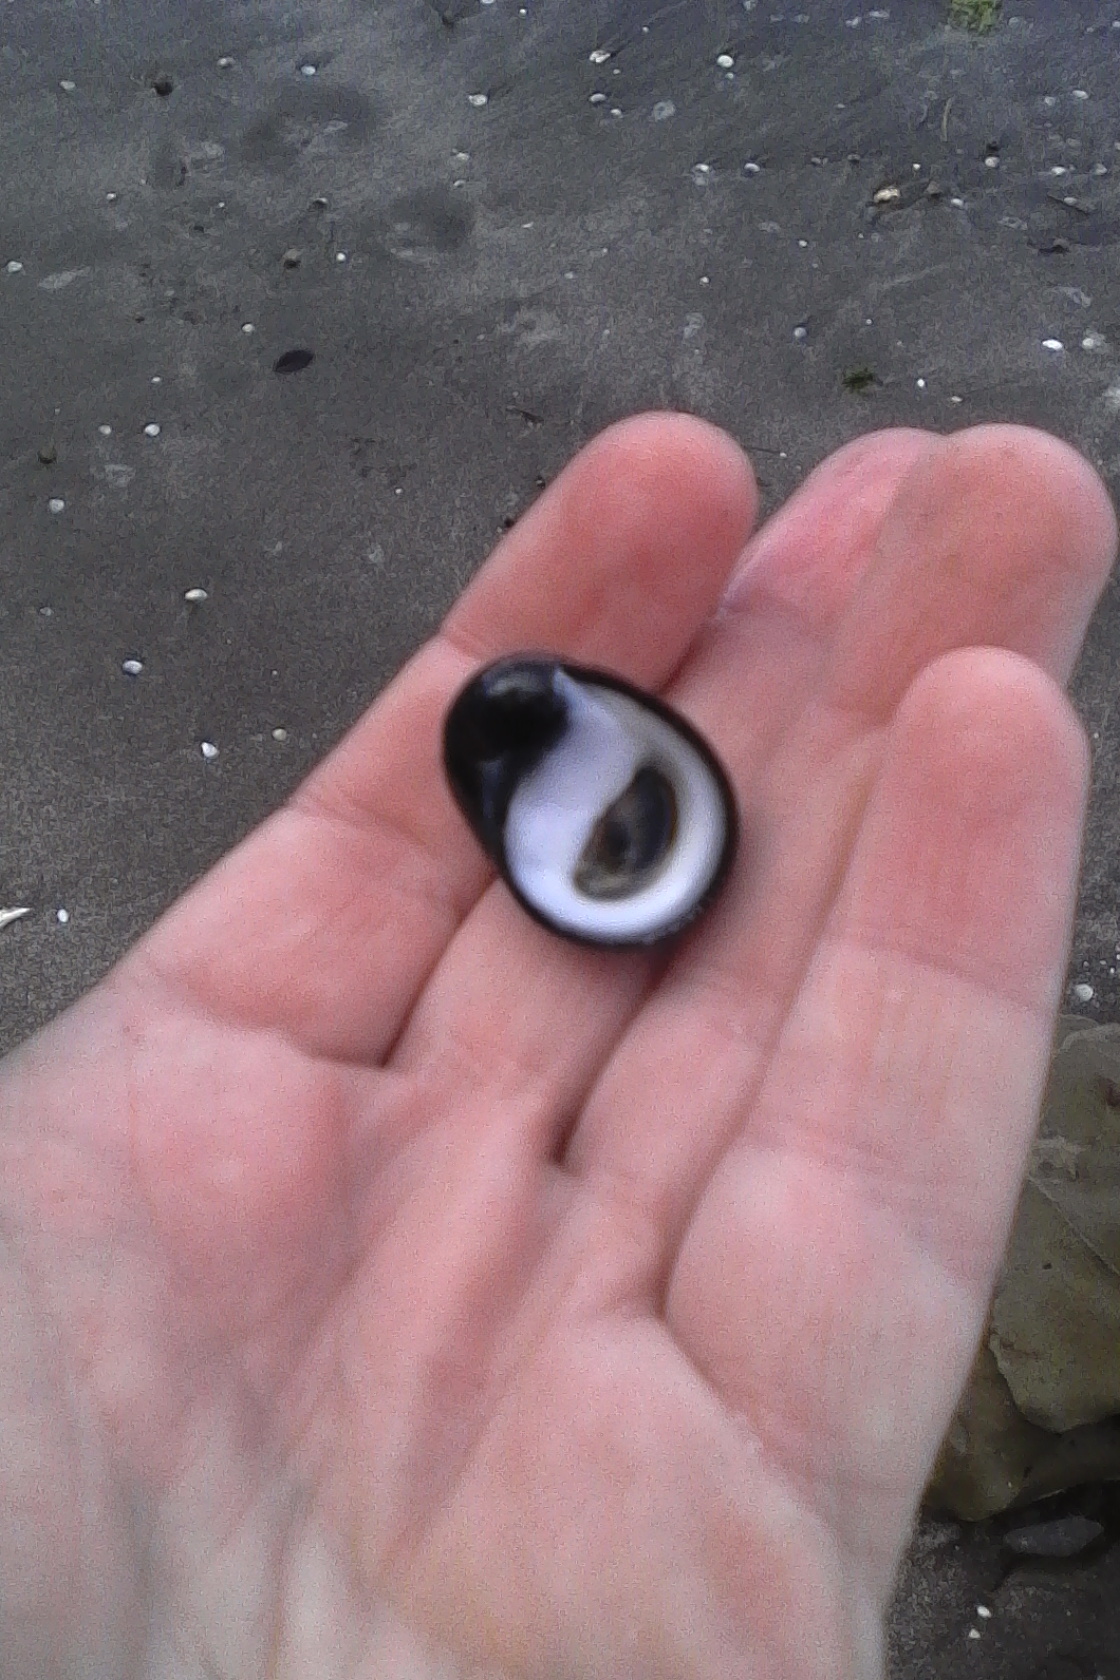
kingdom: Animalia
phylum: Mollusca
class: Gastropoda
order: Cycloneritida
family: Neritidae
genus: Nerita
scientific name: Nerita melanotragus
